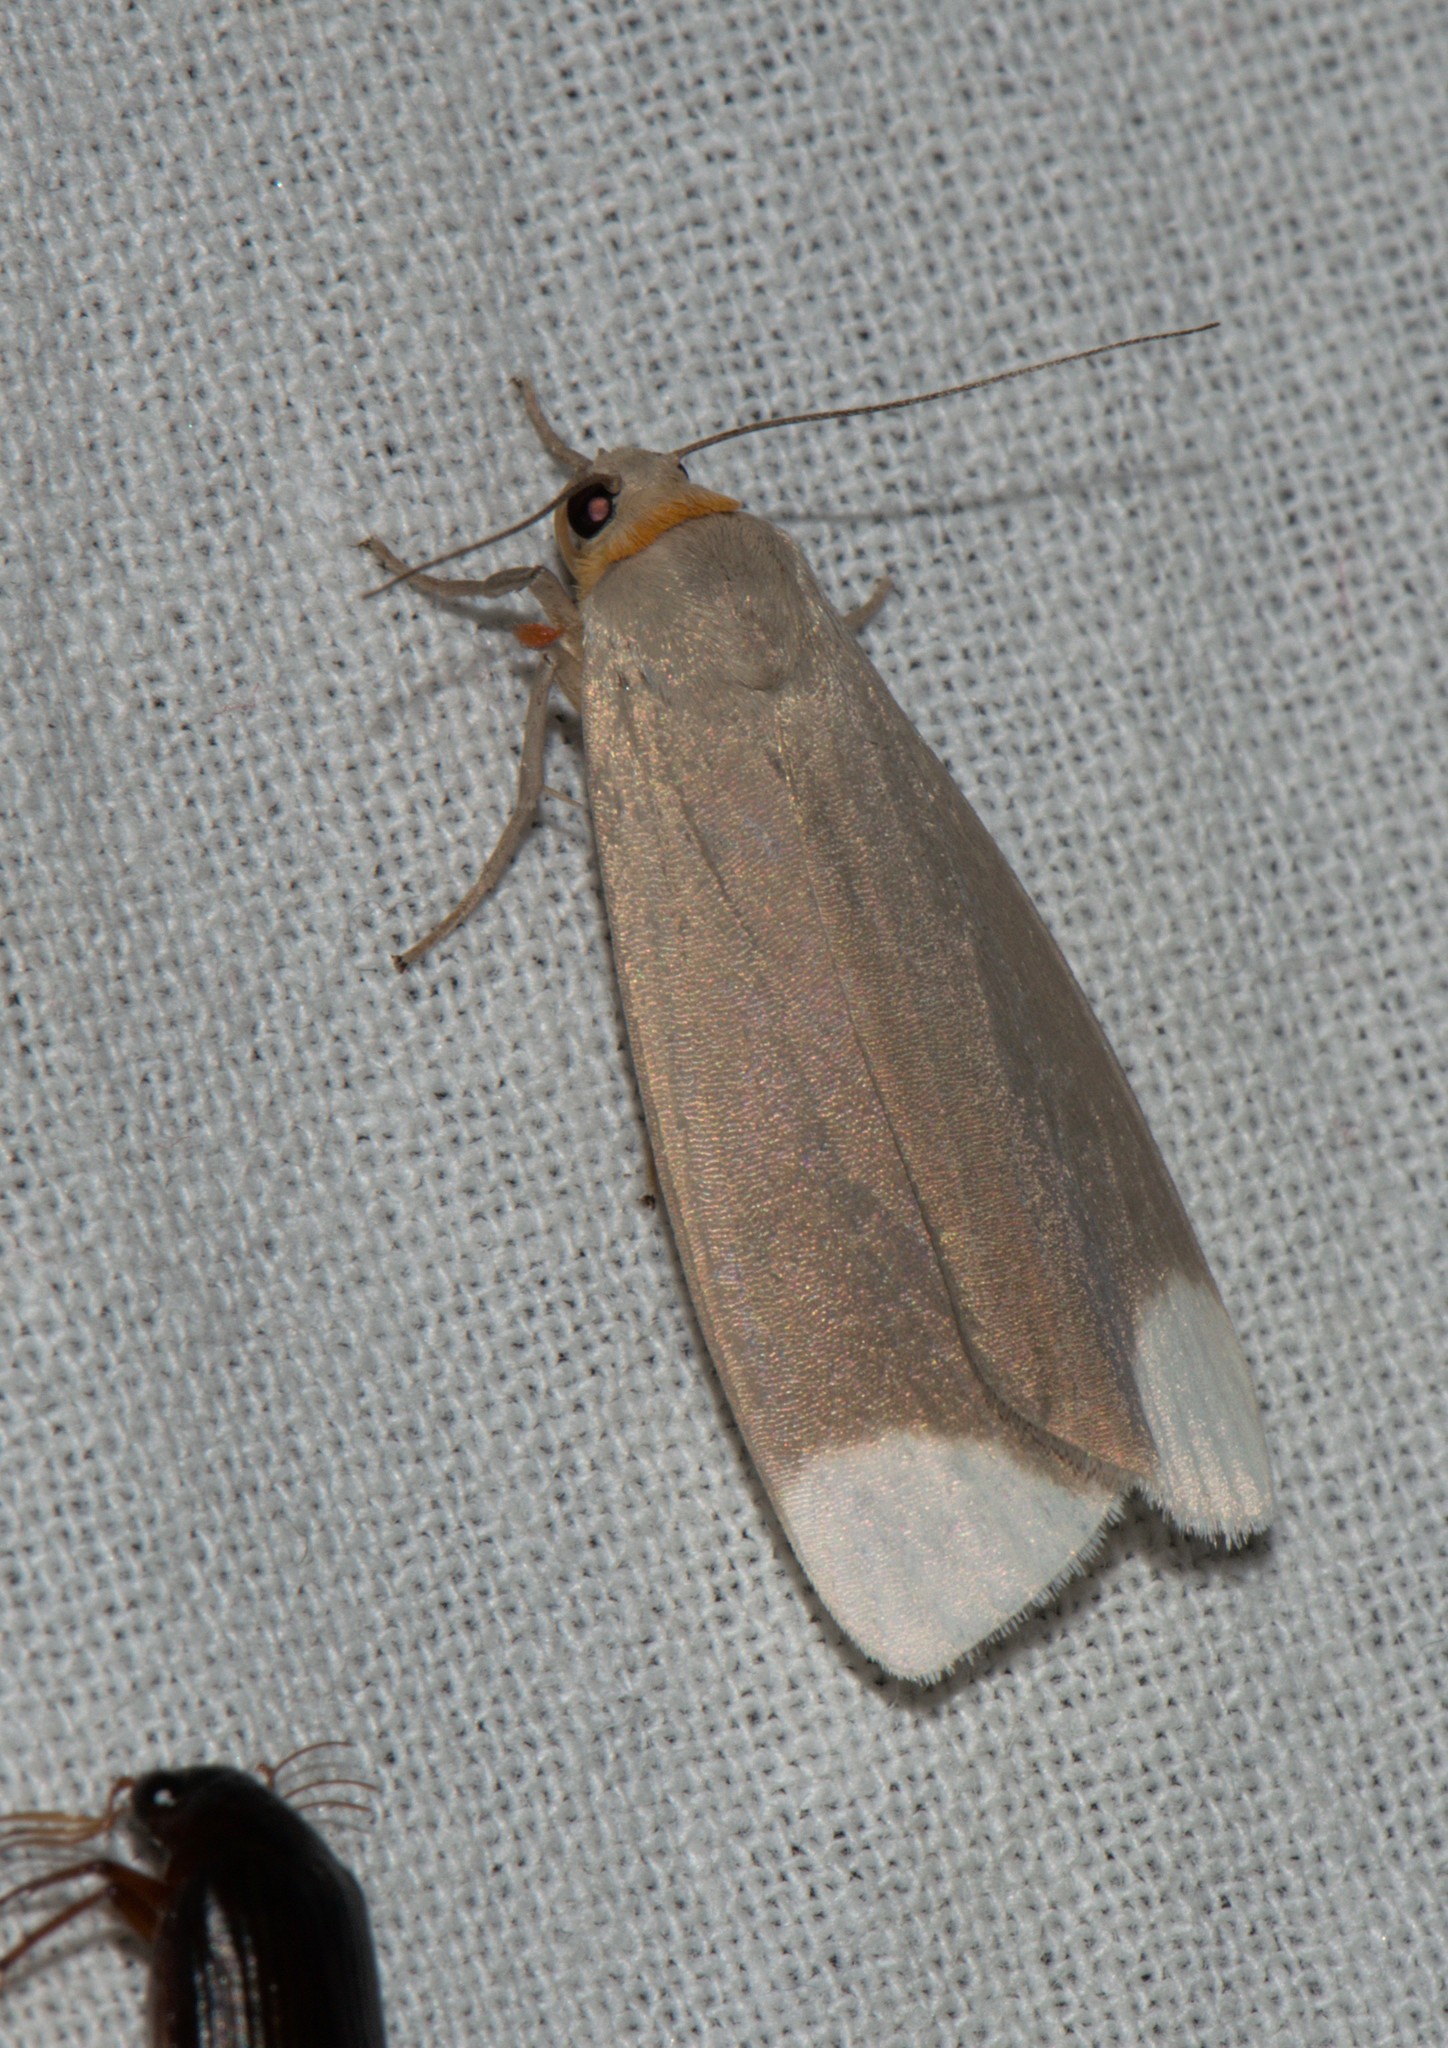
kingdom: Animalia
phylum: Arthropoda
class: Insecta
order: Lepidoptera
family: Erebidae
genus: Sidyma
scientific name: Sidyma albifinis
